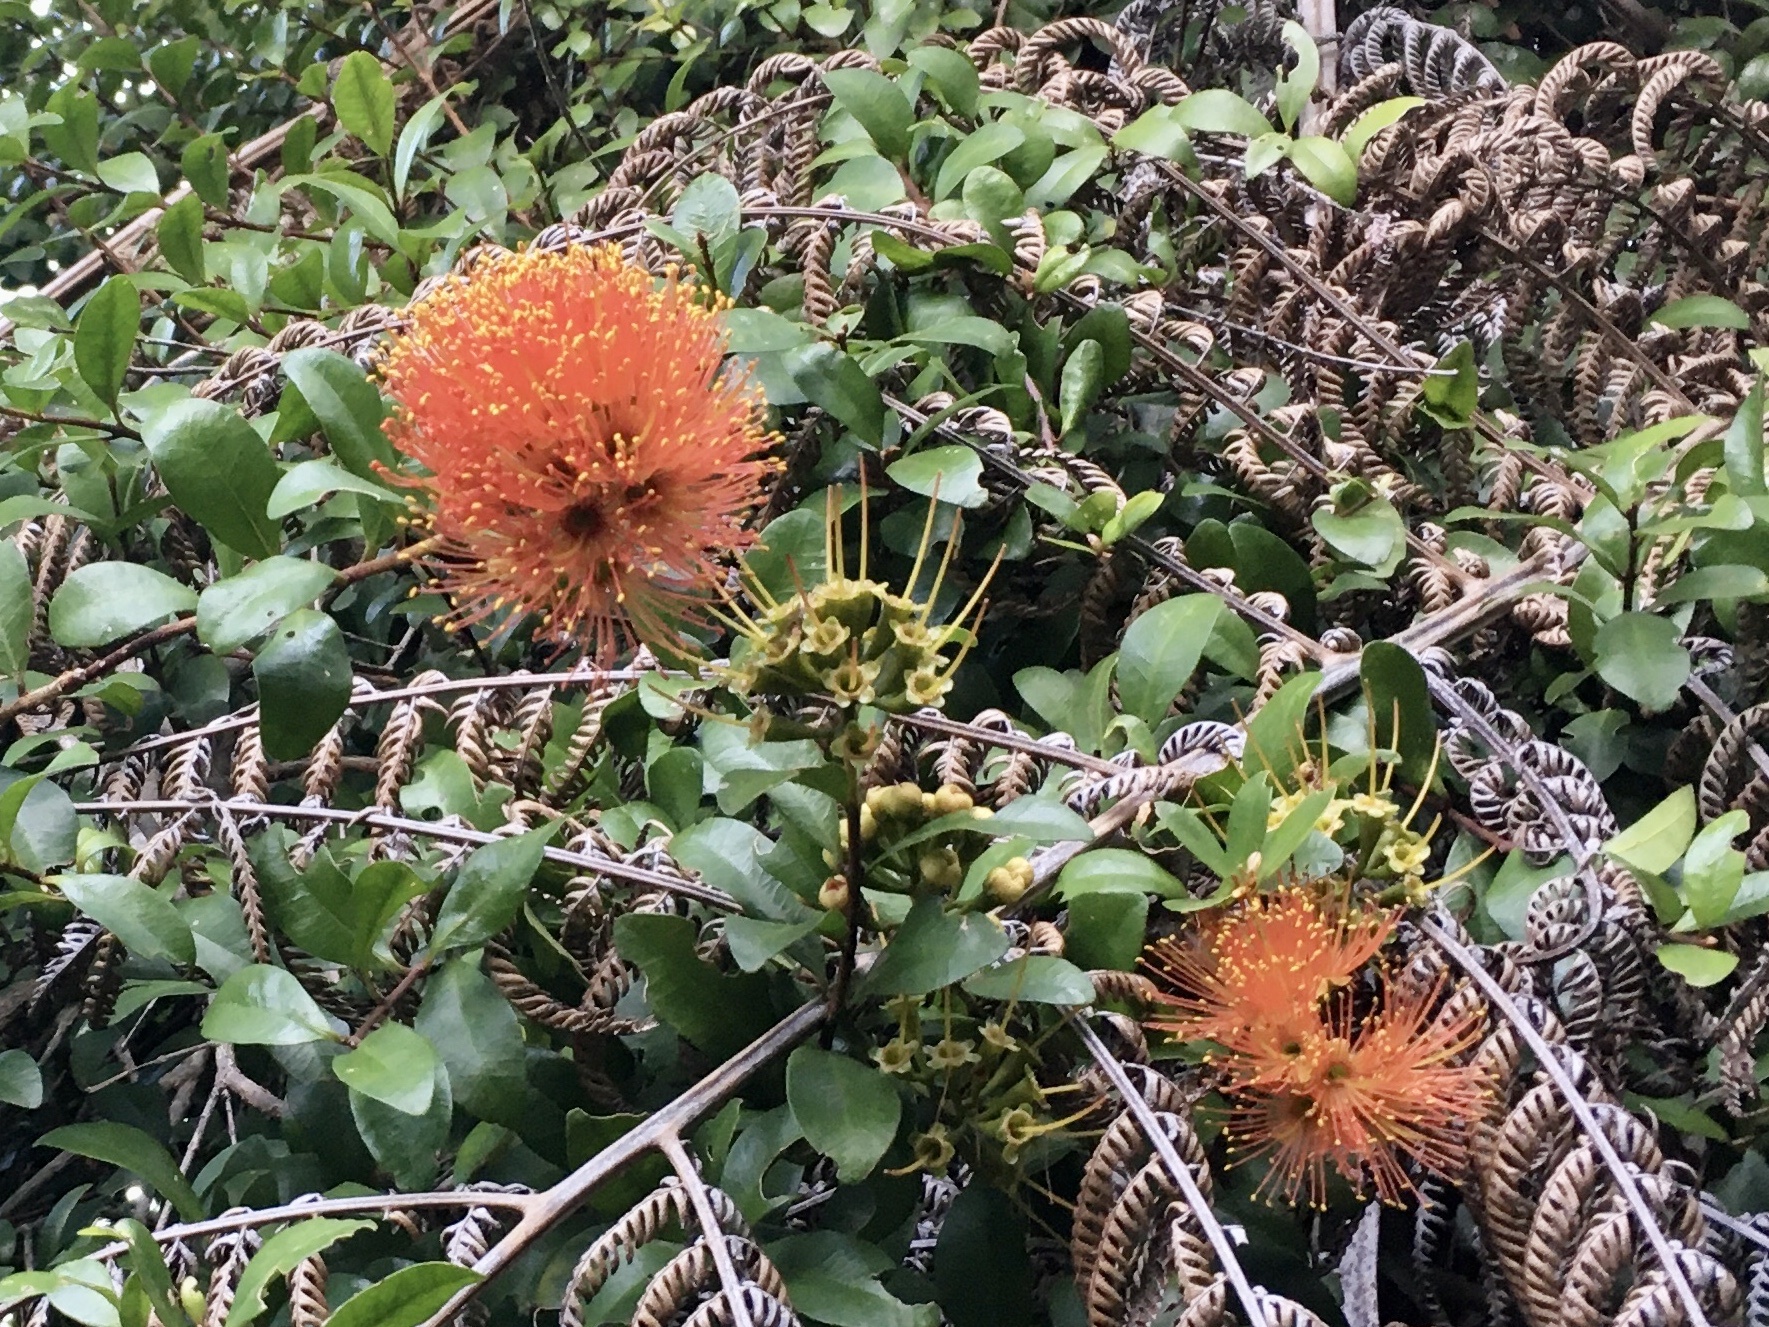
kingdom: Plantae
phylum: Tracheophyta
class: Magnoliopsida
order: Myrtales
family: Myrtaceae
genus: Metrosideros
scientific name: Metrosideros fulgens
